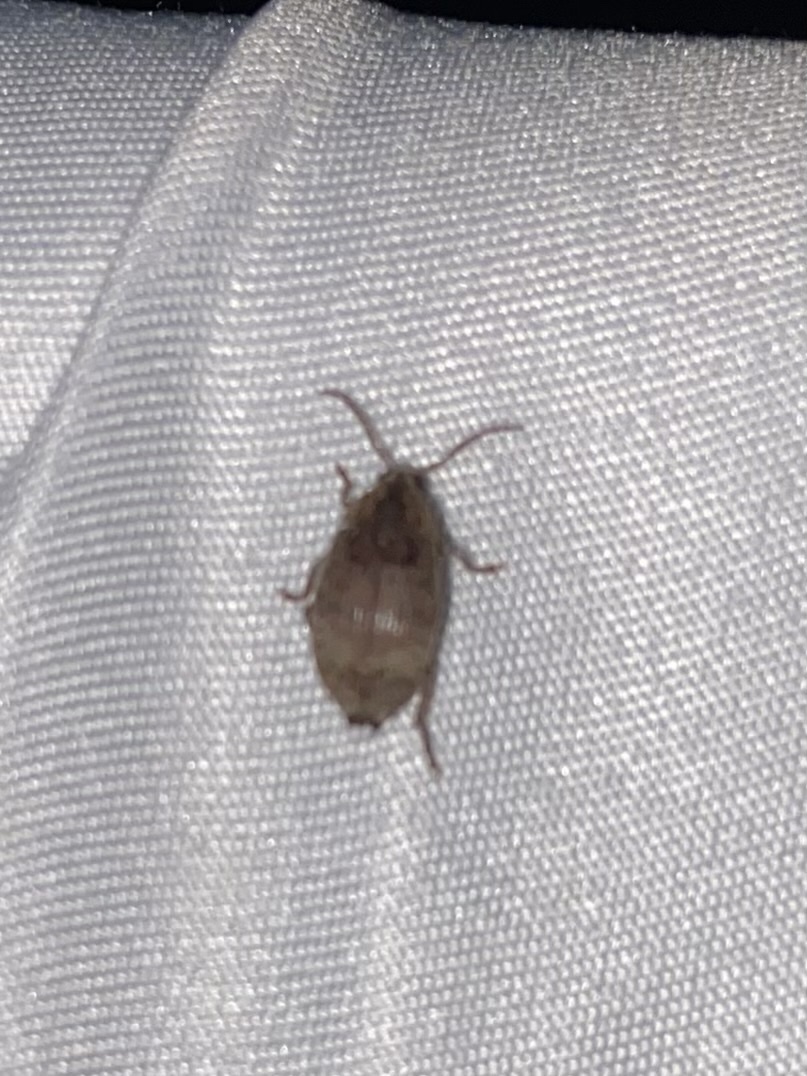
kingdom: Animalia
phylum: Arthropoda
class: Insecta
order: Coleoptera
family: Chrysomelidae
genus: Amblycerus
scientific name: Amblycerus robiniae
